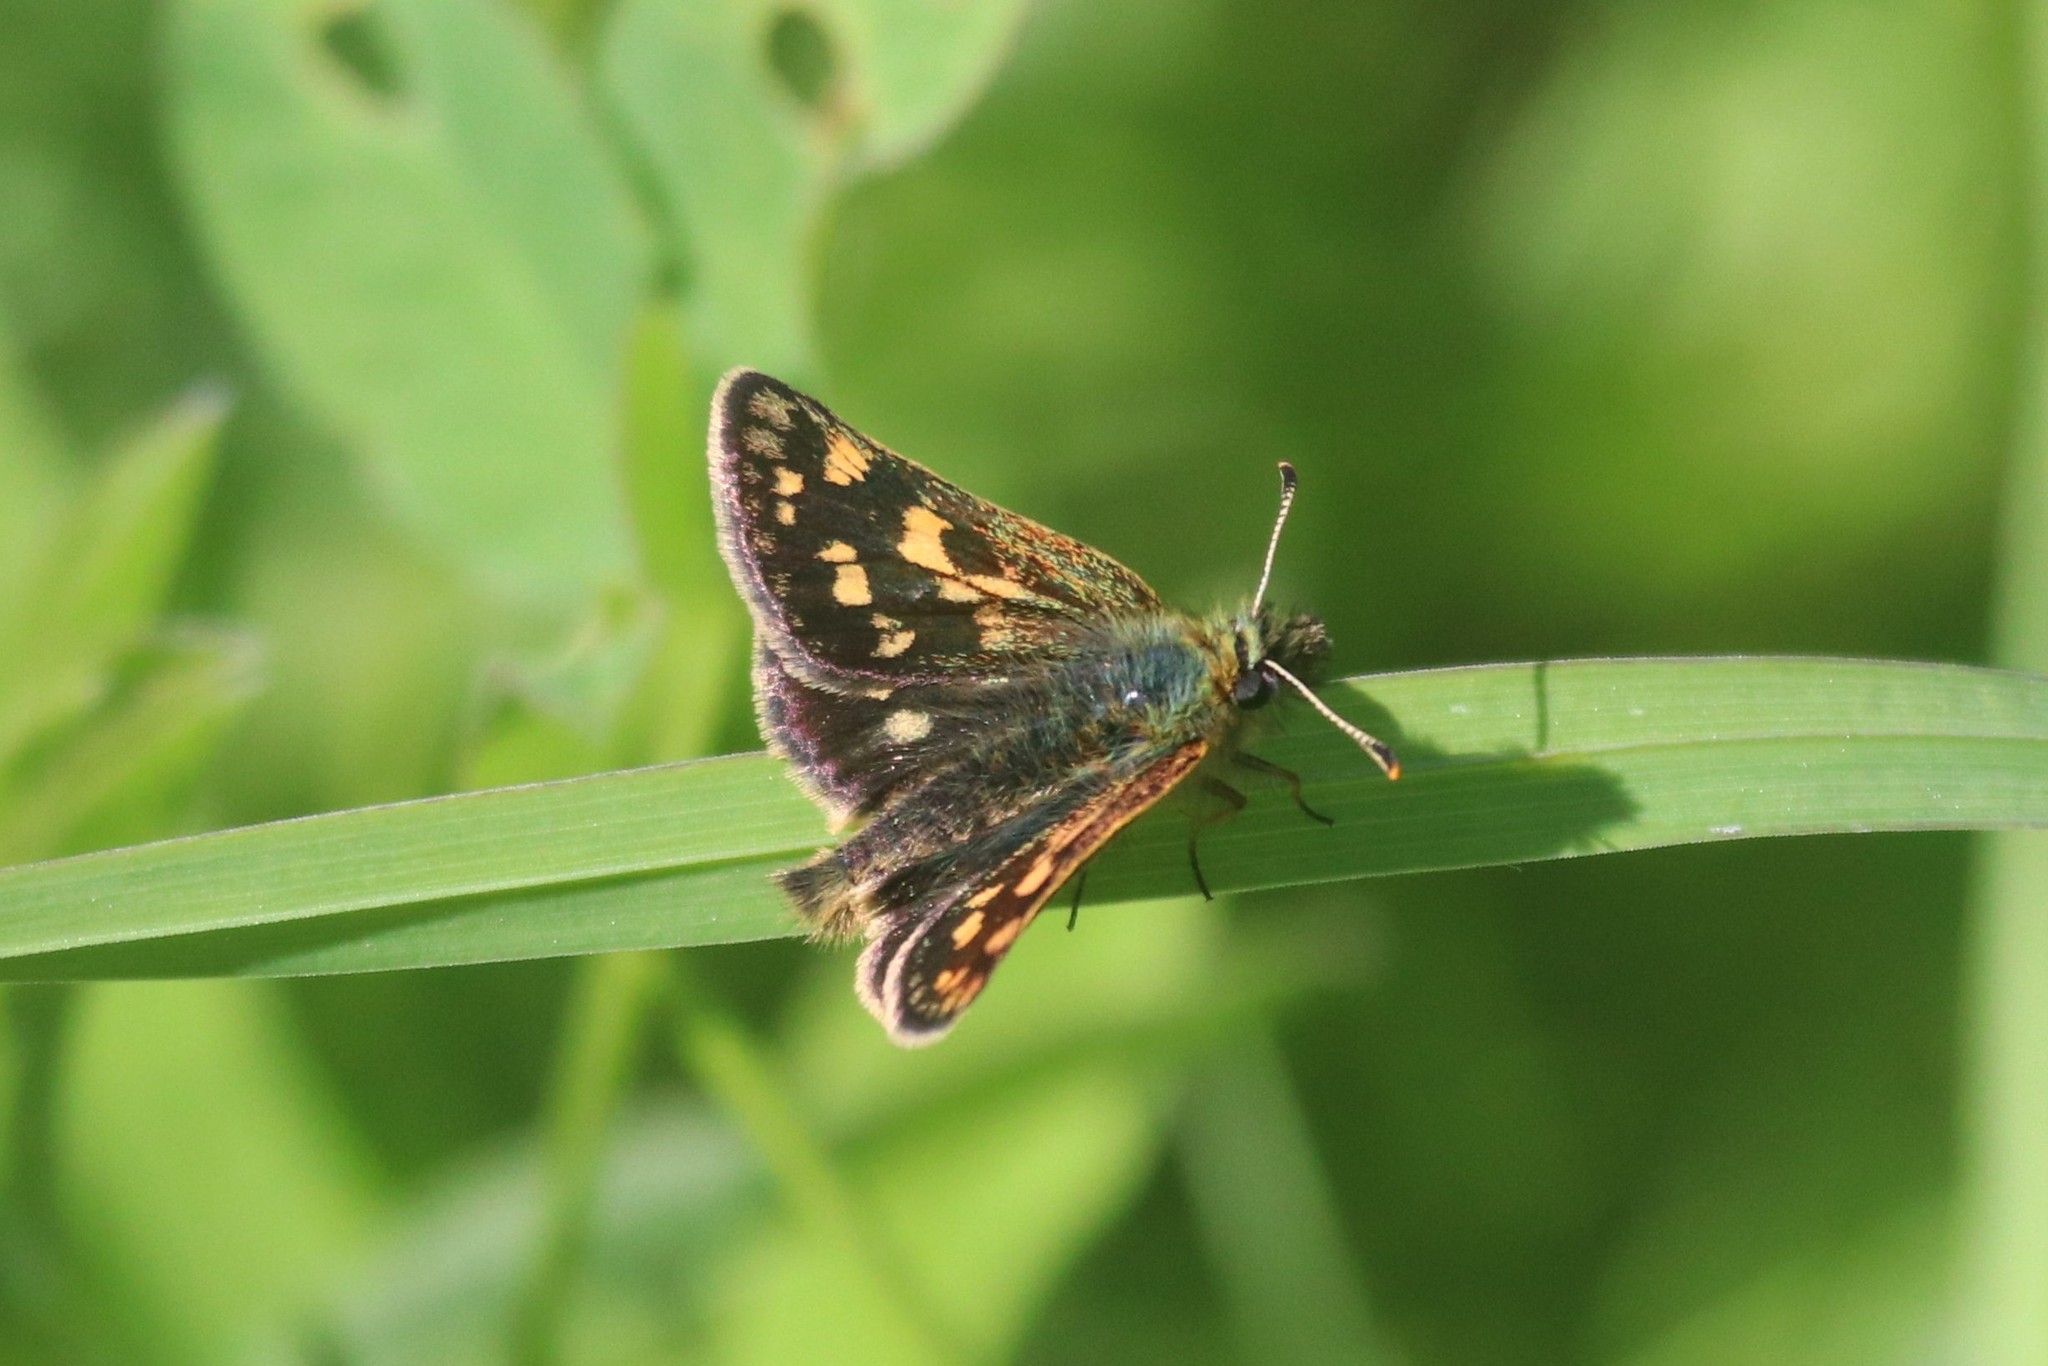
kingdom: Animalia
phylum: Arthropoda
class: Insecta
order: Lepidoptera
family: Hesperiidae
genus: Carterocephalus
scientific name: Carterocephalus palaemon
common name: Chequered skipper
